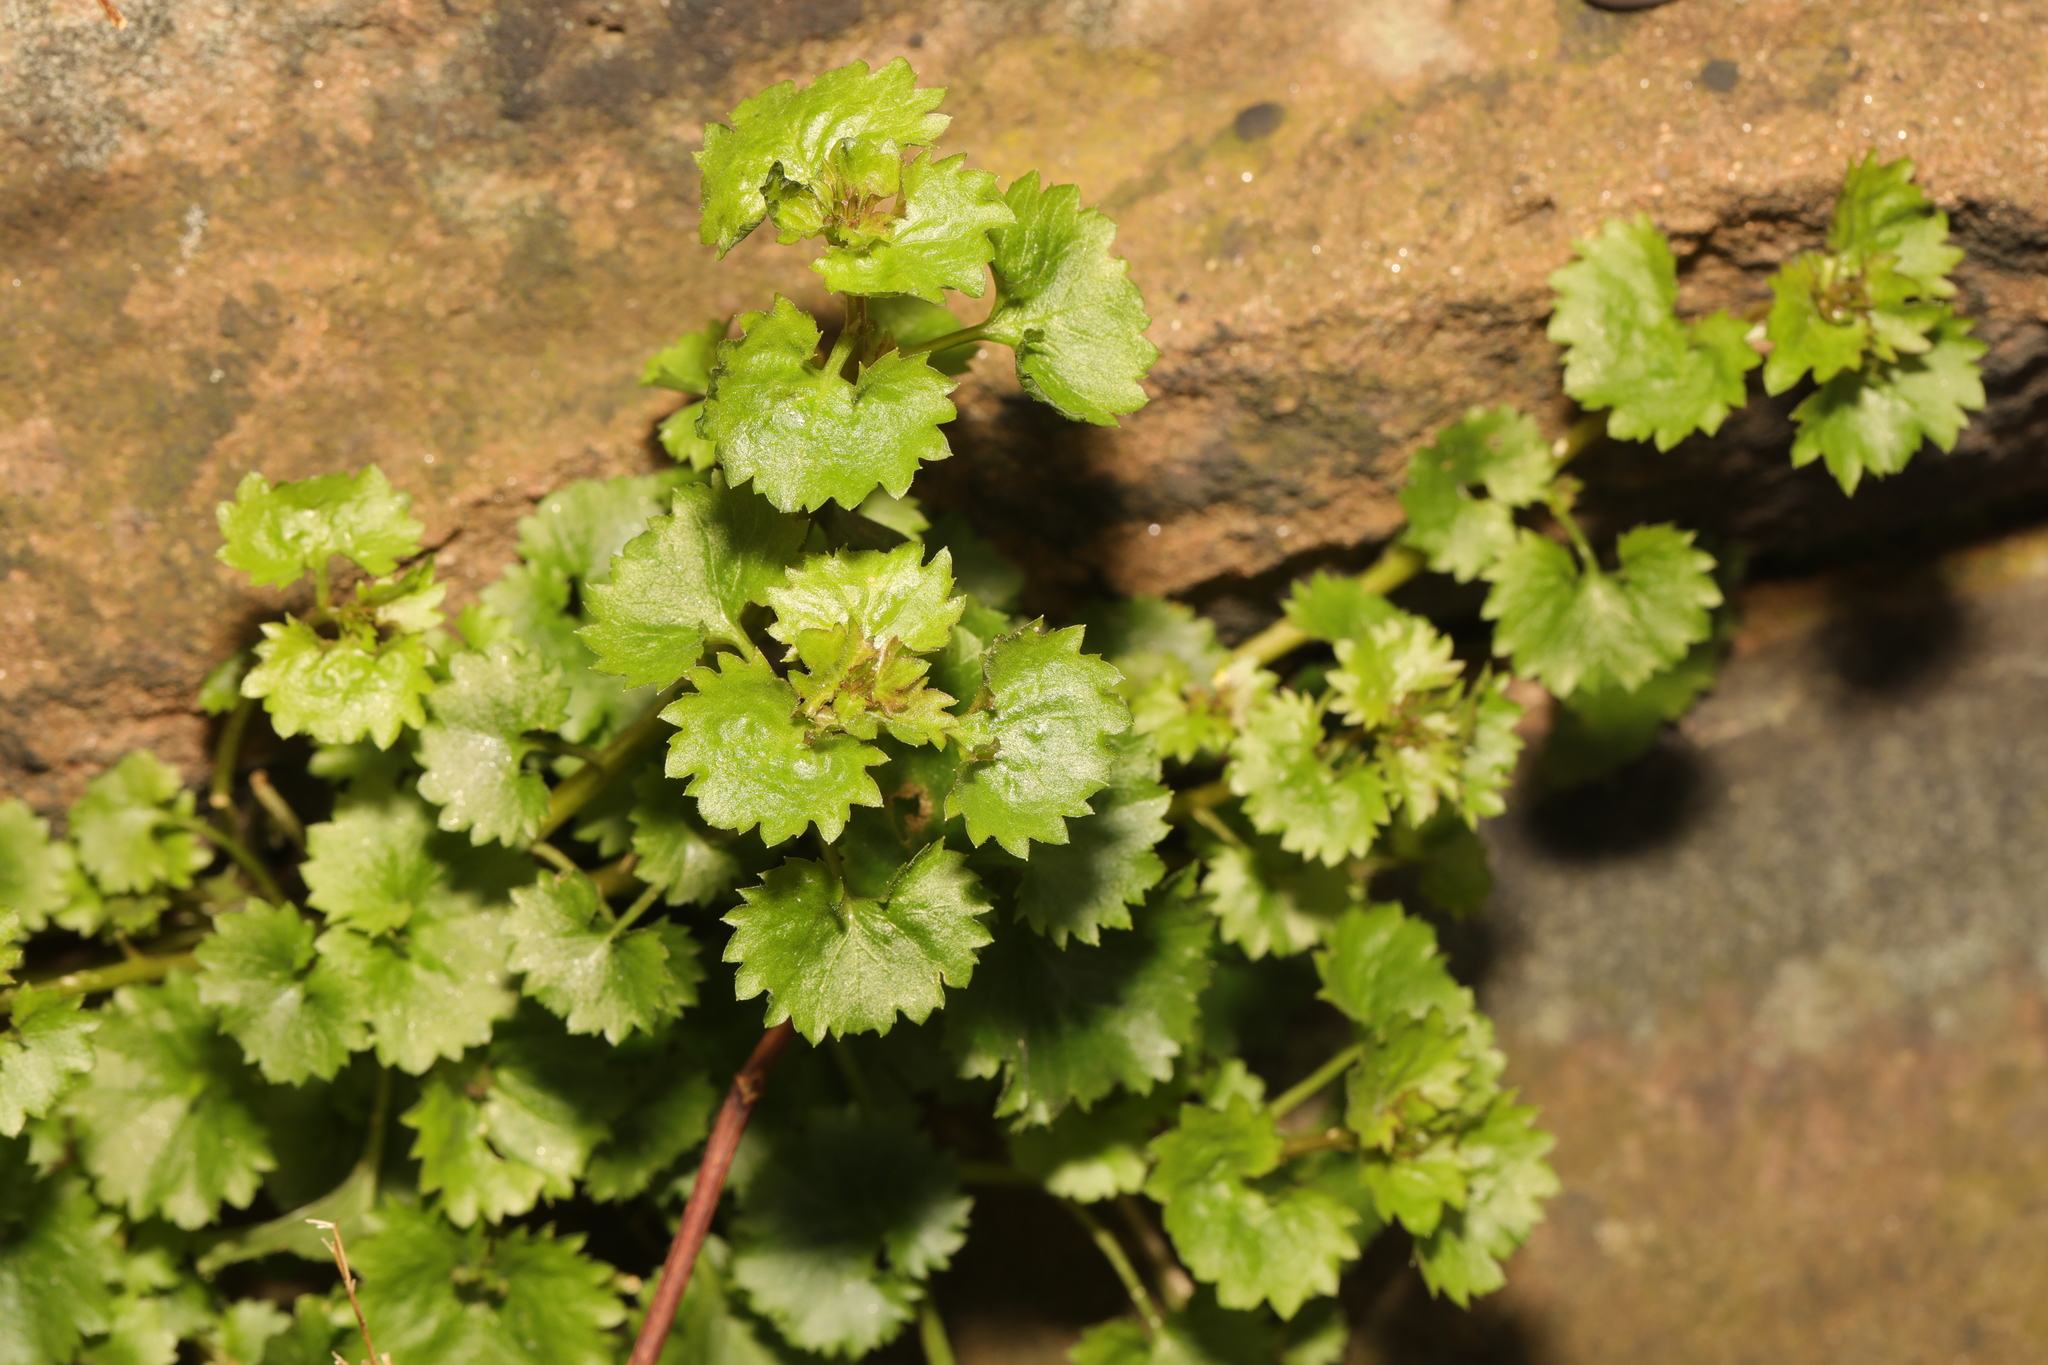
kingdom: Plantae
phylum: Tracheophyta
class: Magnoliopsida
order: Asterales
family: Campanulaceae
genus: Campanula
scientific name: Campanula portenschlagiana
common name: Adria bellflower
